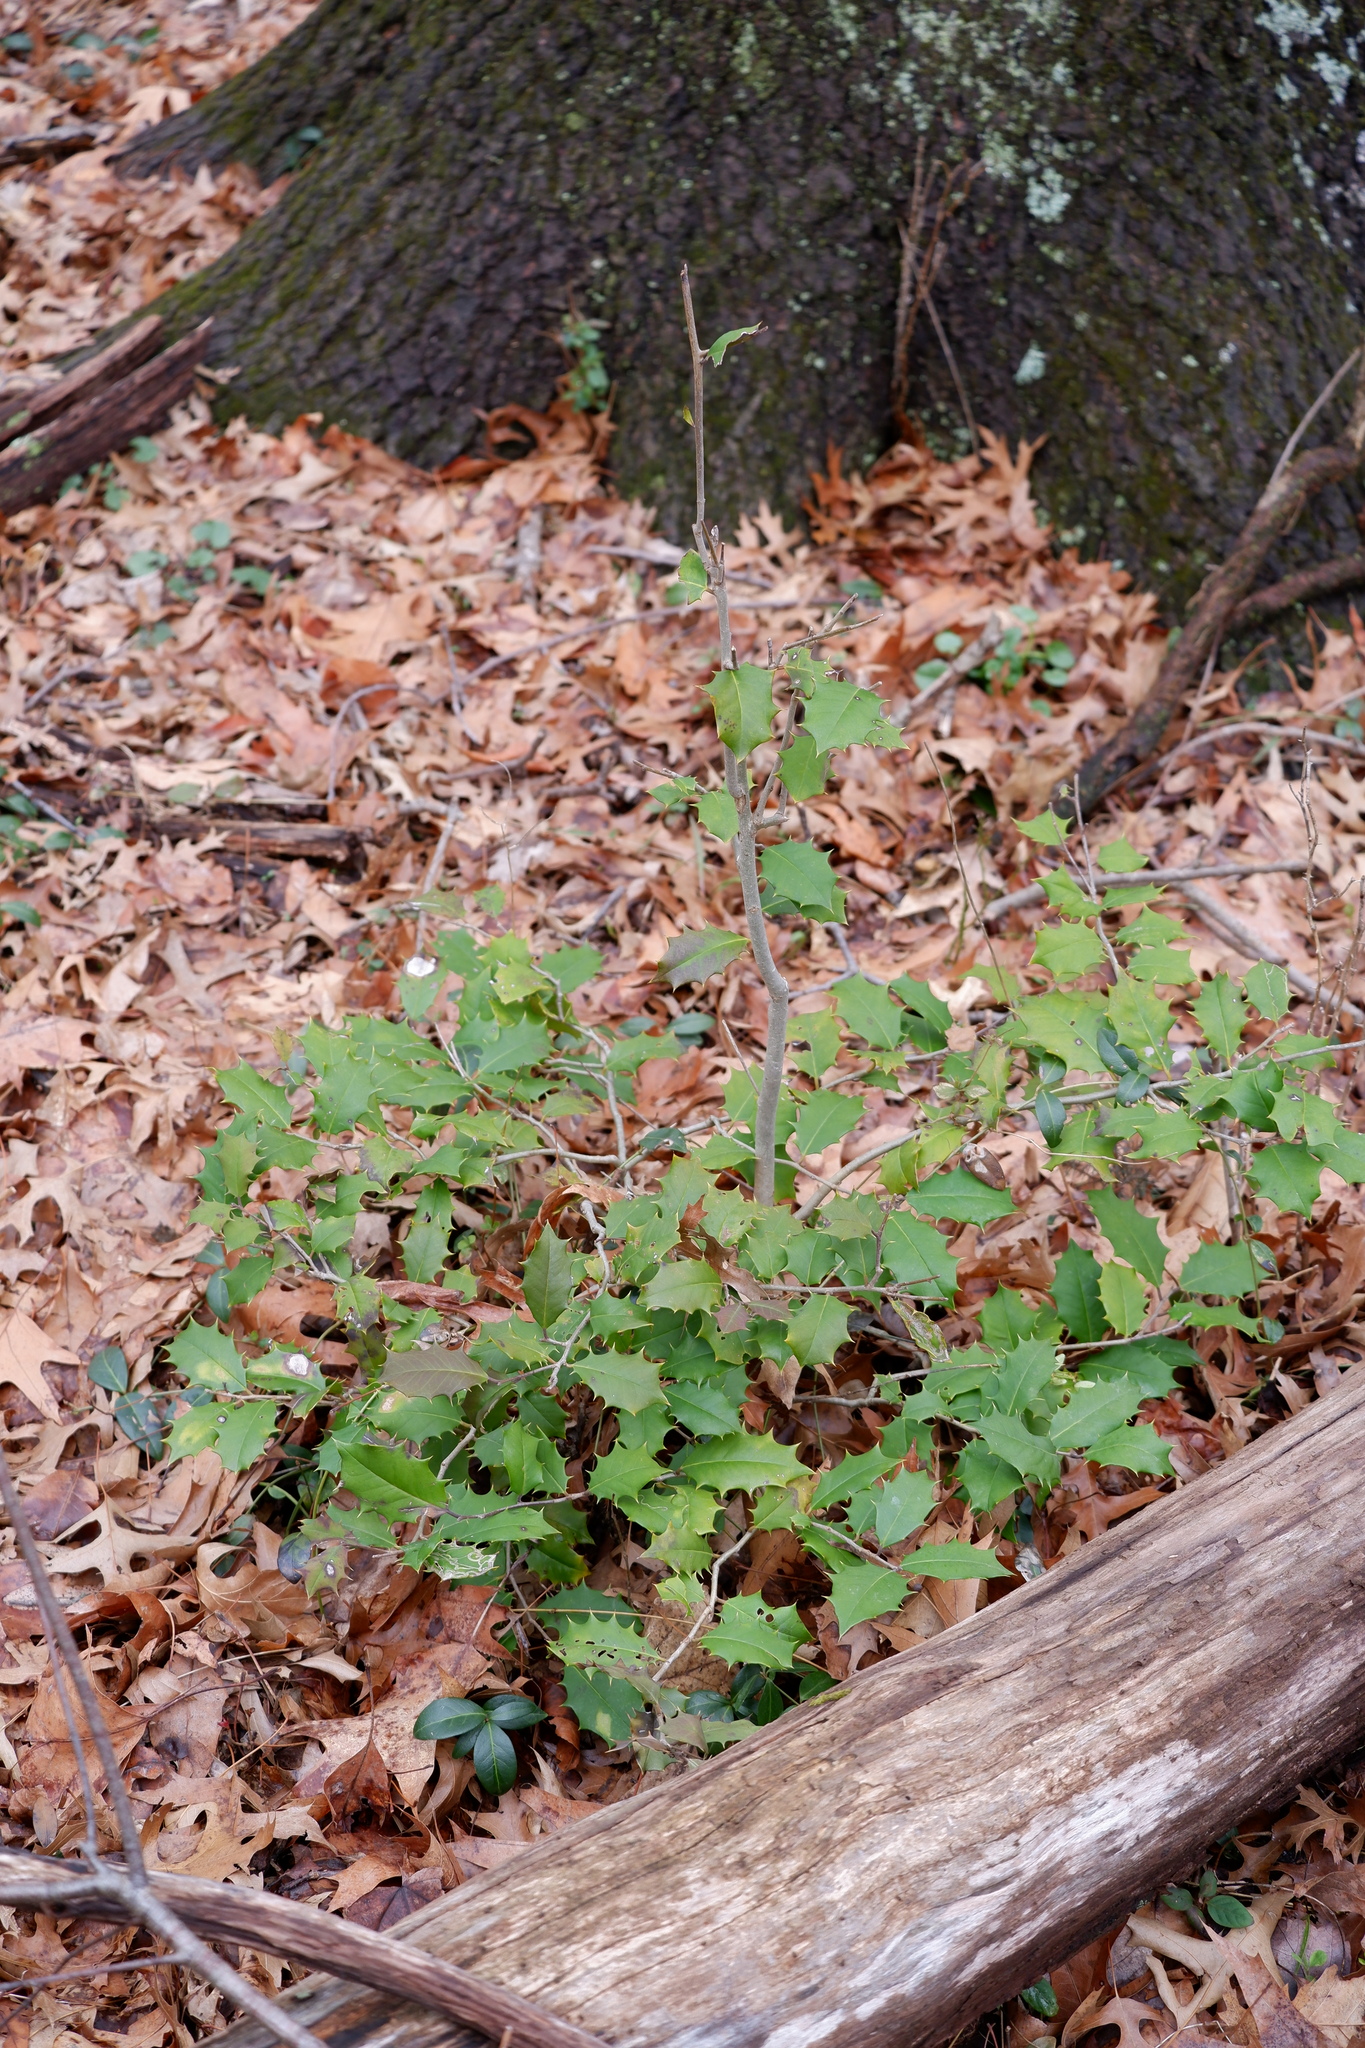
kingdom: Plantae
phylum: Tracheophyta
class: Magnoliopsida
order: Aquifoliales
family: Aquifoliaceae
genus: Ilex
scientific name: Ilex opaca
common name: American holly
